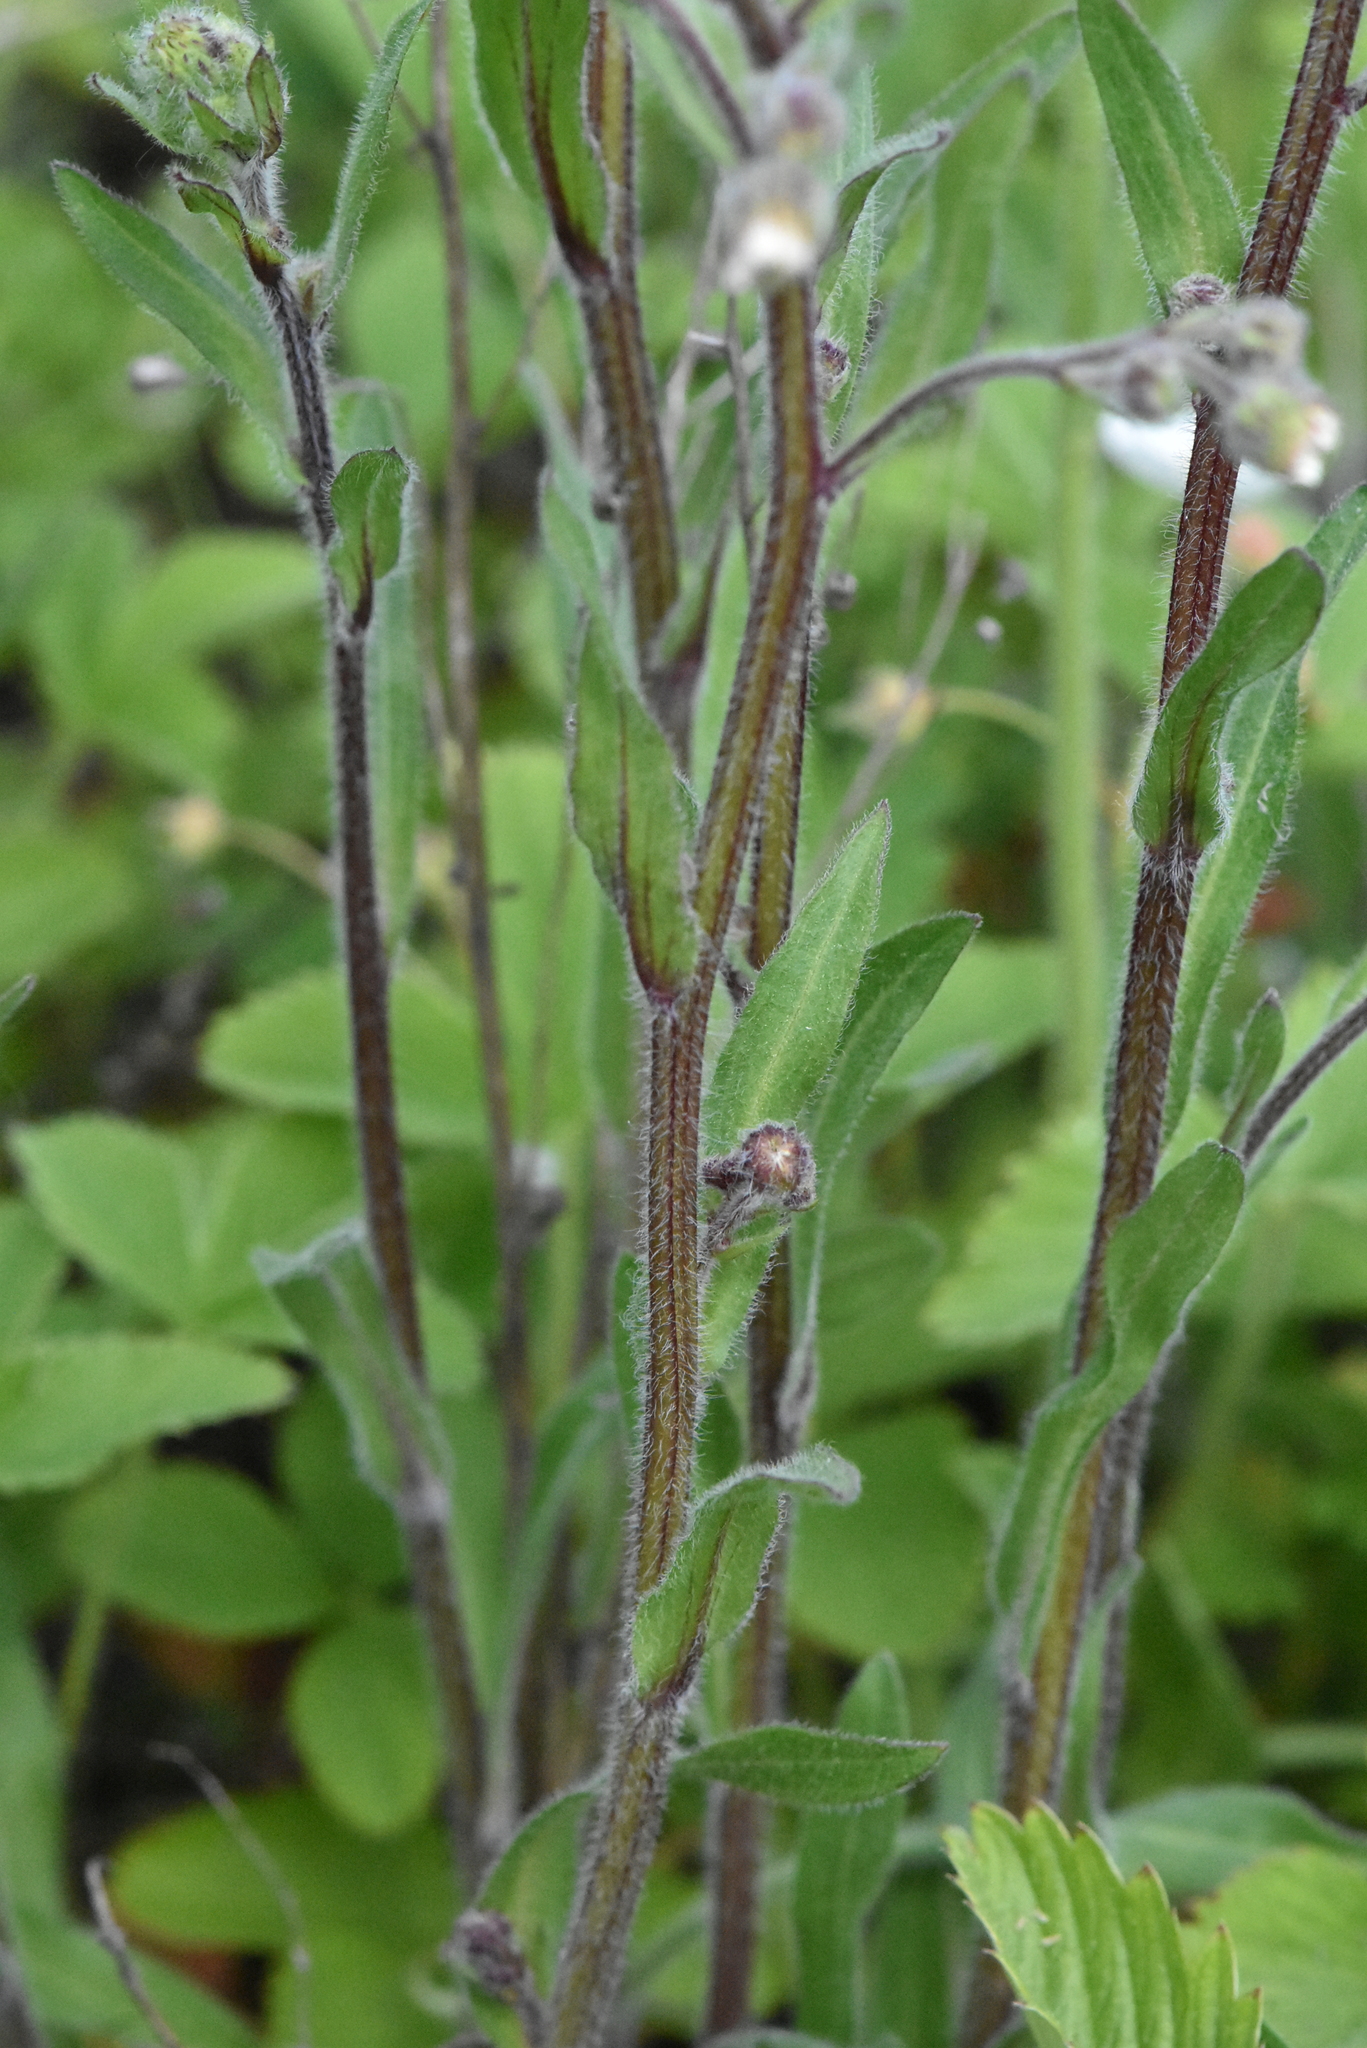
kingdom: Plantae
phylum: Tracheophyta
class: Magnoliopsida
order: Asterales
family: Asteraceae
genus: Erigeron
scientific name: Erigeron acris
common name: Blue fleabane
